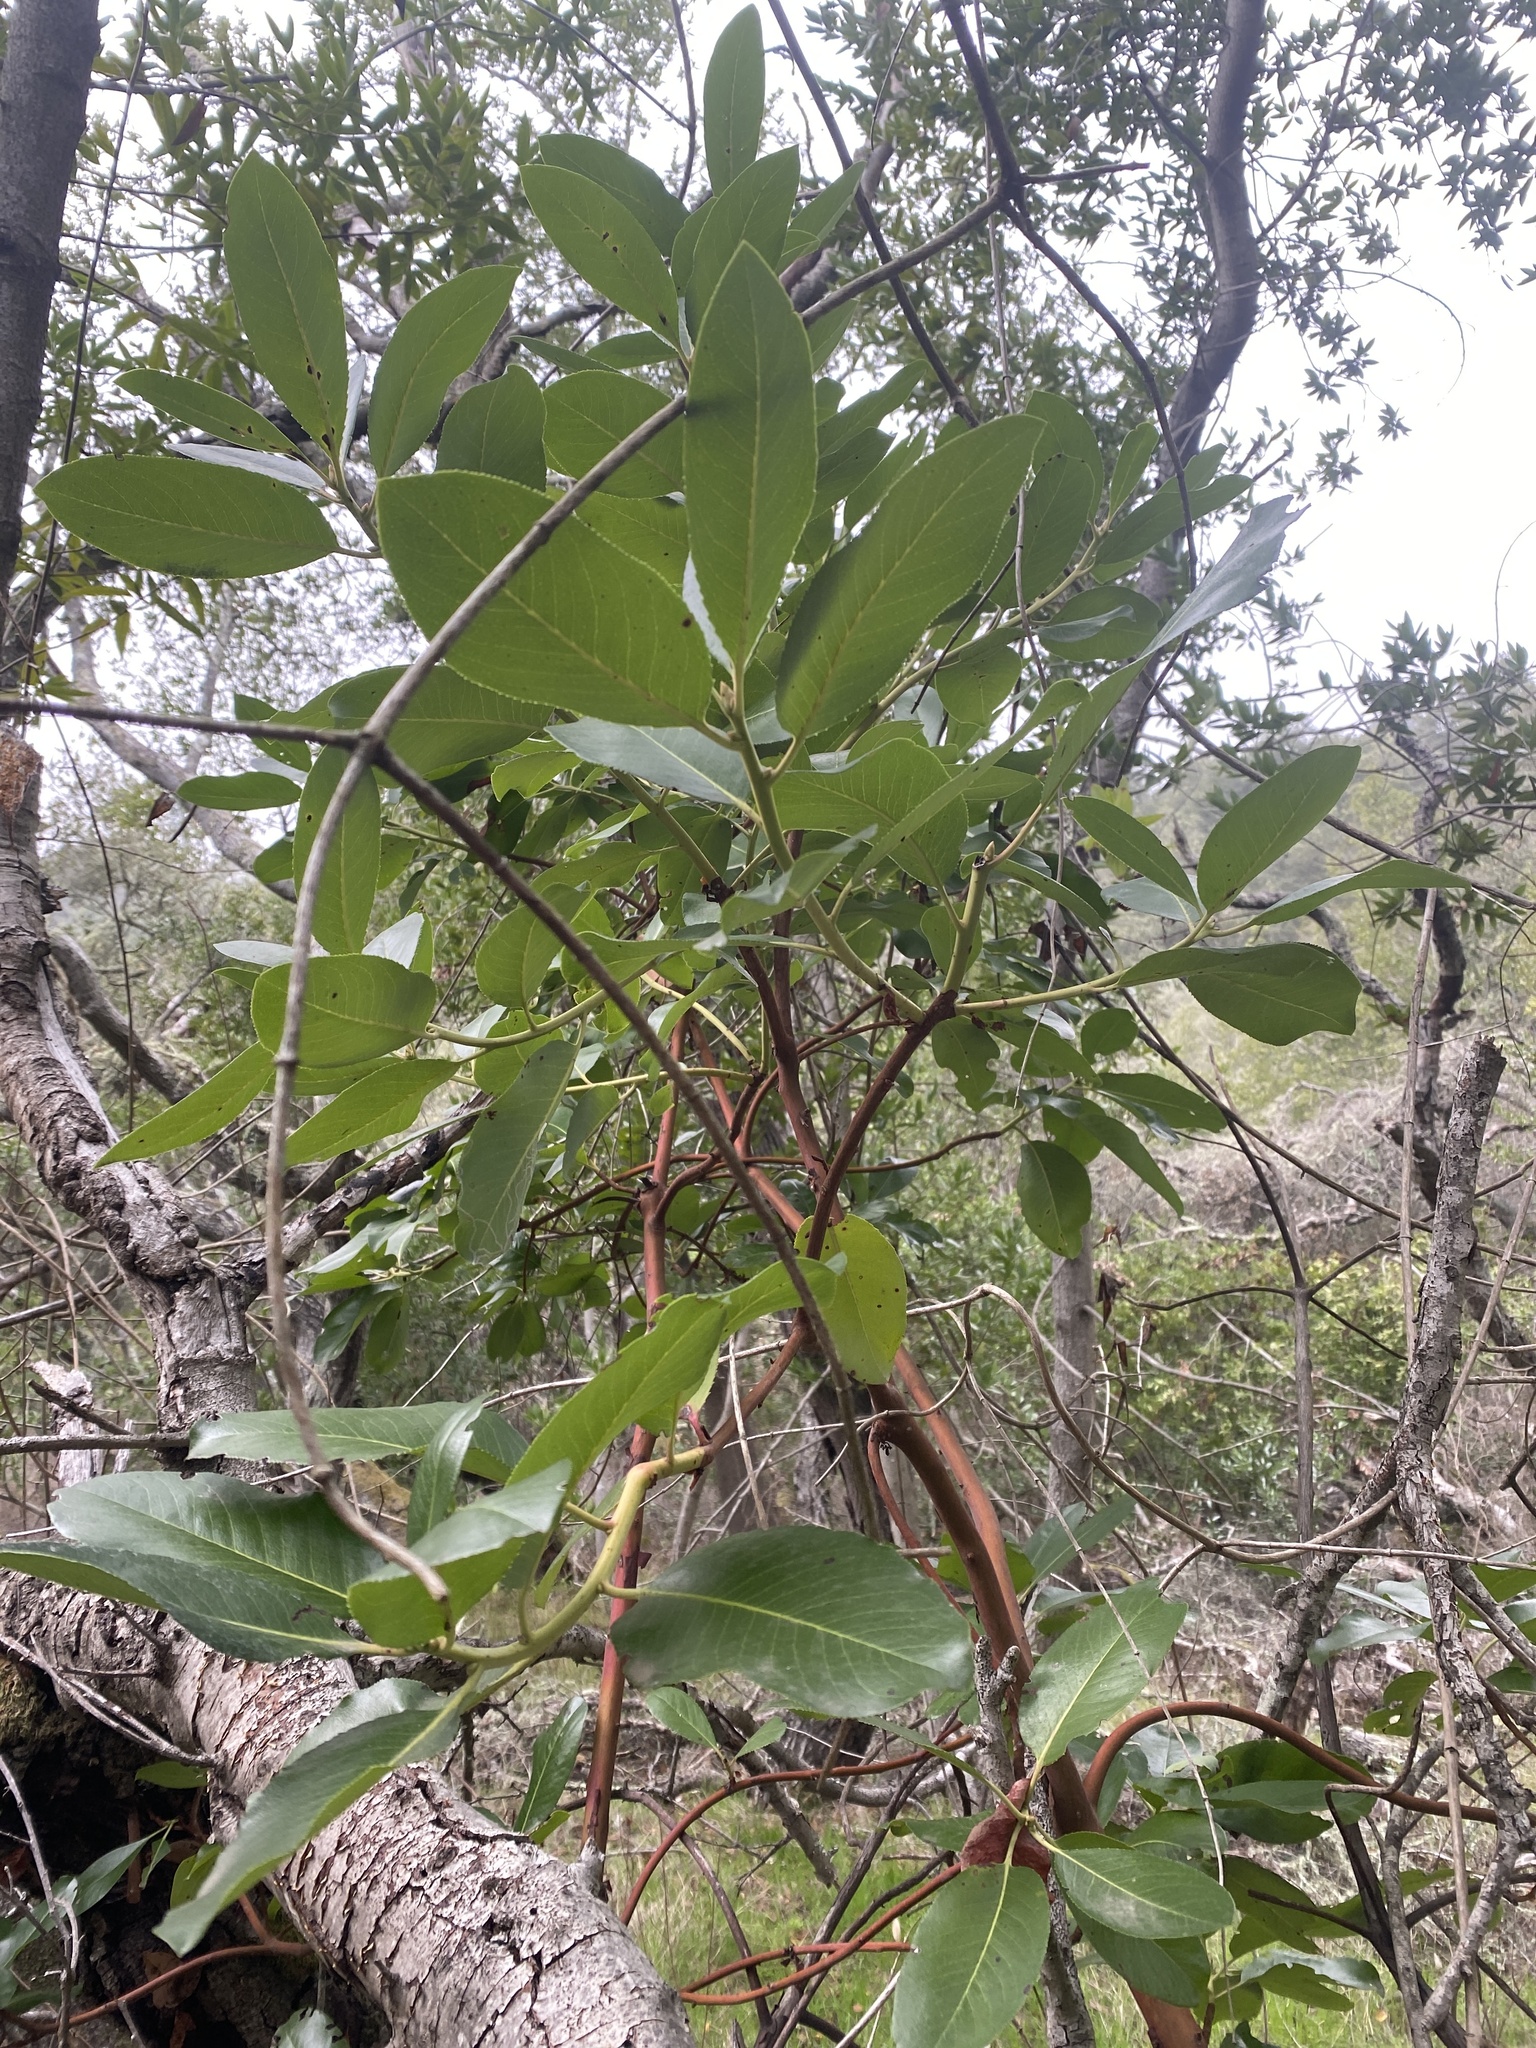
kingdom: Plantae
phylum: Tracheophyta
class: Magnoliopsida
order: Ericales
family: Ericaceae
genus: Arbutus
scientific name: Arbutus menziesii
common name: Pacific madrone
